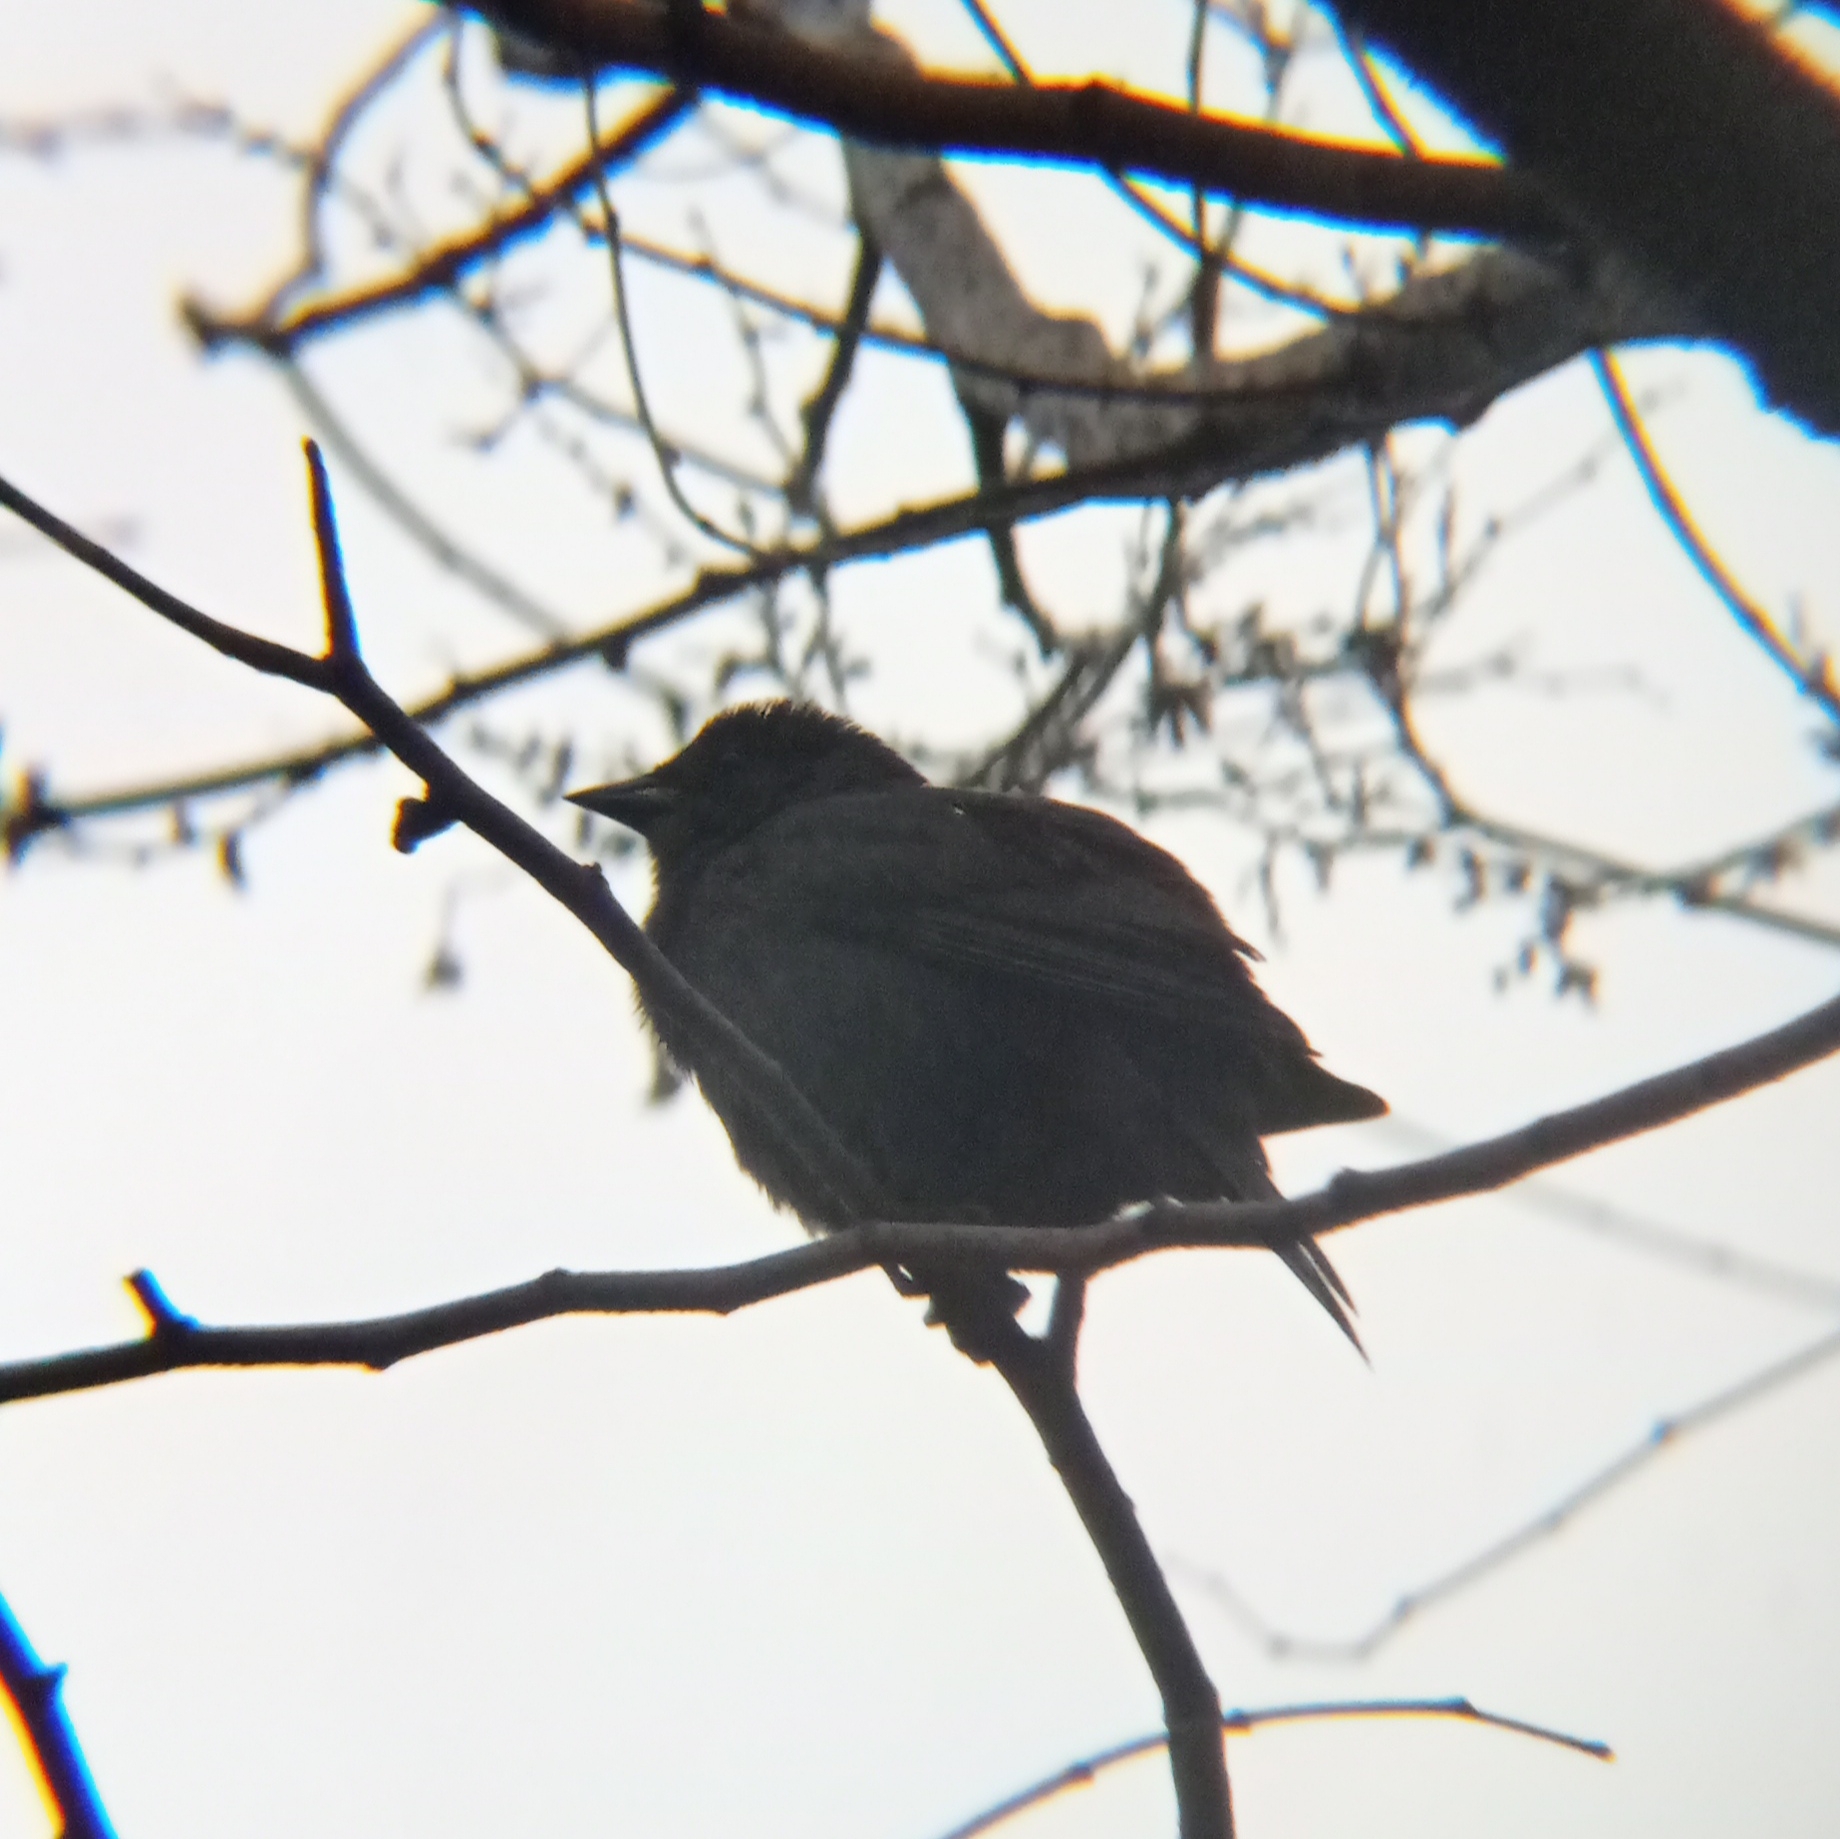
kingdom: Animalia
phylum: Chordata
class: Aves
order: Passeriformes
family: Icteridae
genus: Molothrus
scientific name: Molothrus bonariensis
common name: Shiny cowbird
